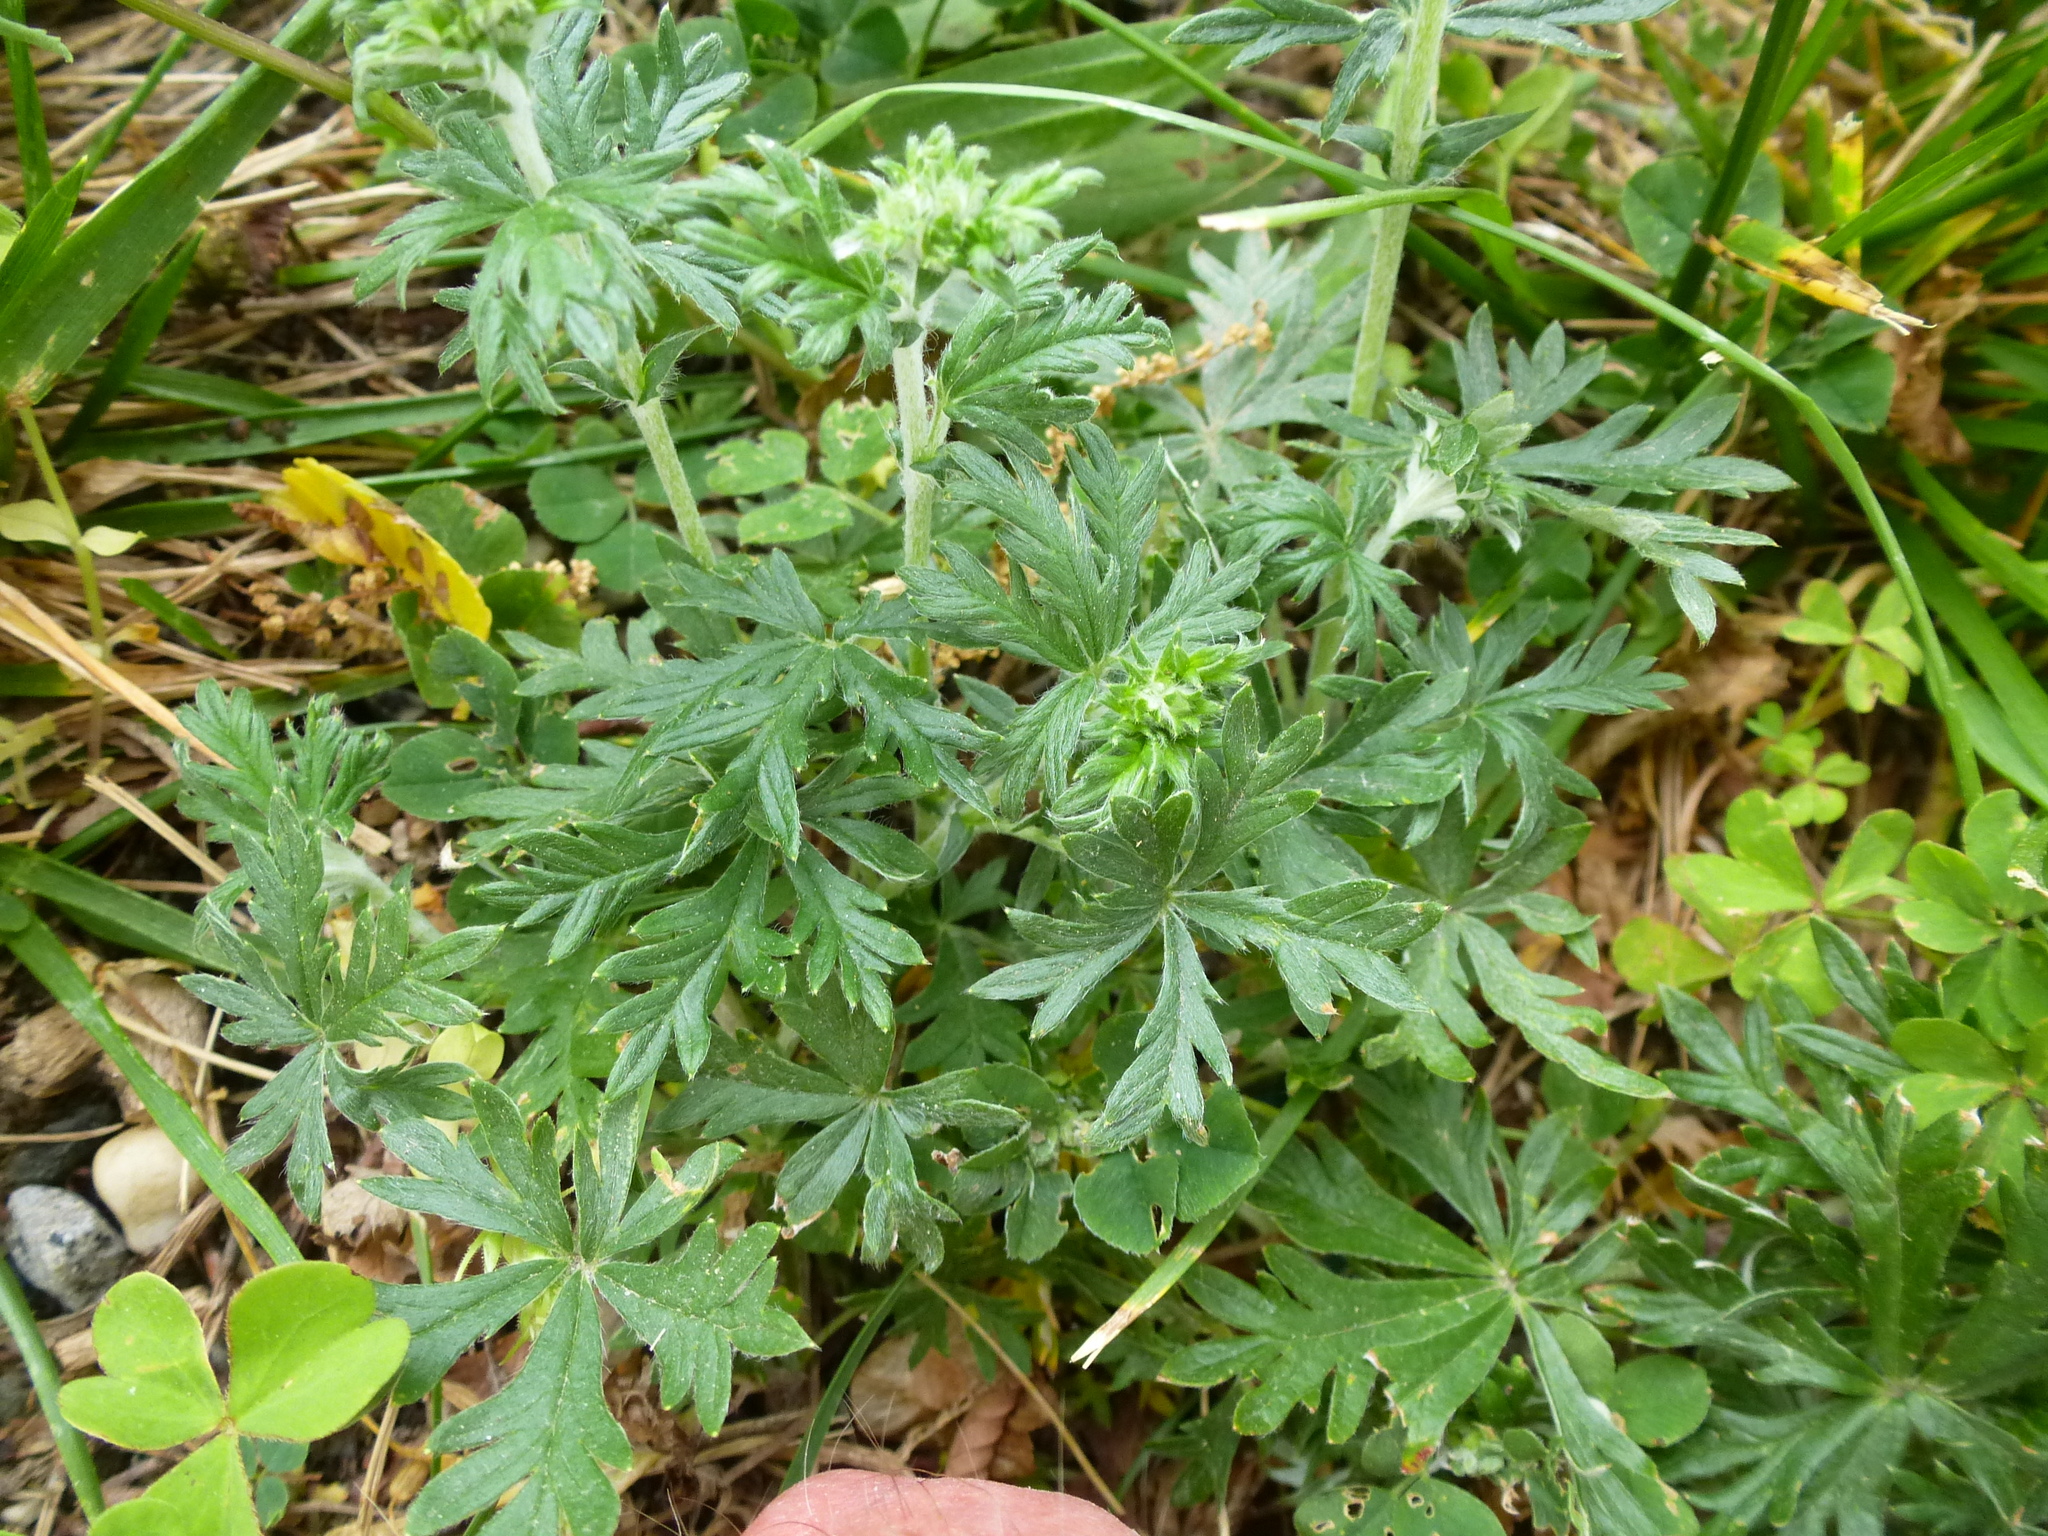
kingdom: Plantae
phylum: Tracheophyta
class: Magnoliopsida
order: Rosales
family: Rosaceae
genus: Potentilla
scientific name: Potentilla argentea
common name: Hoary cinquefoil
